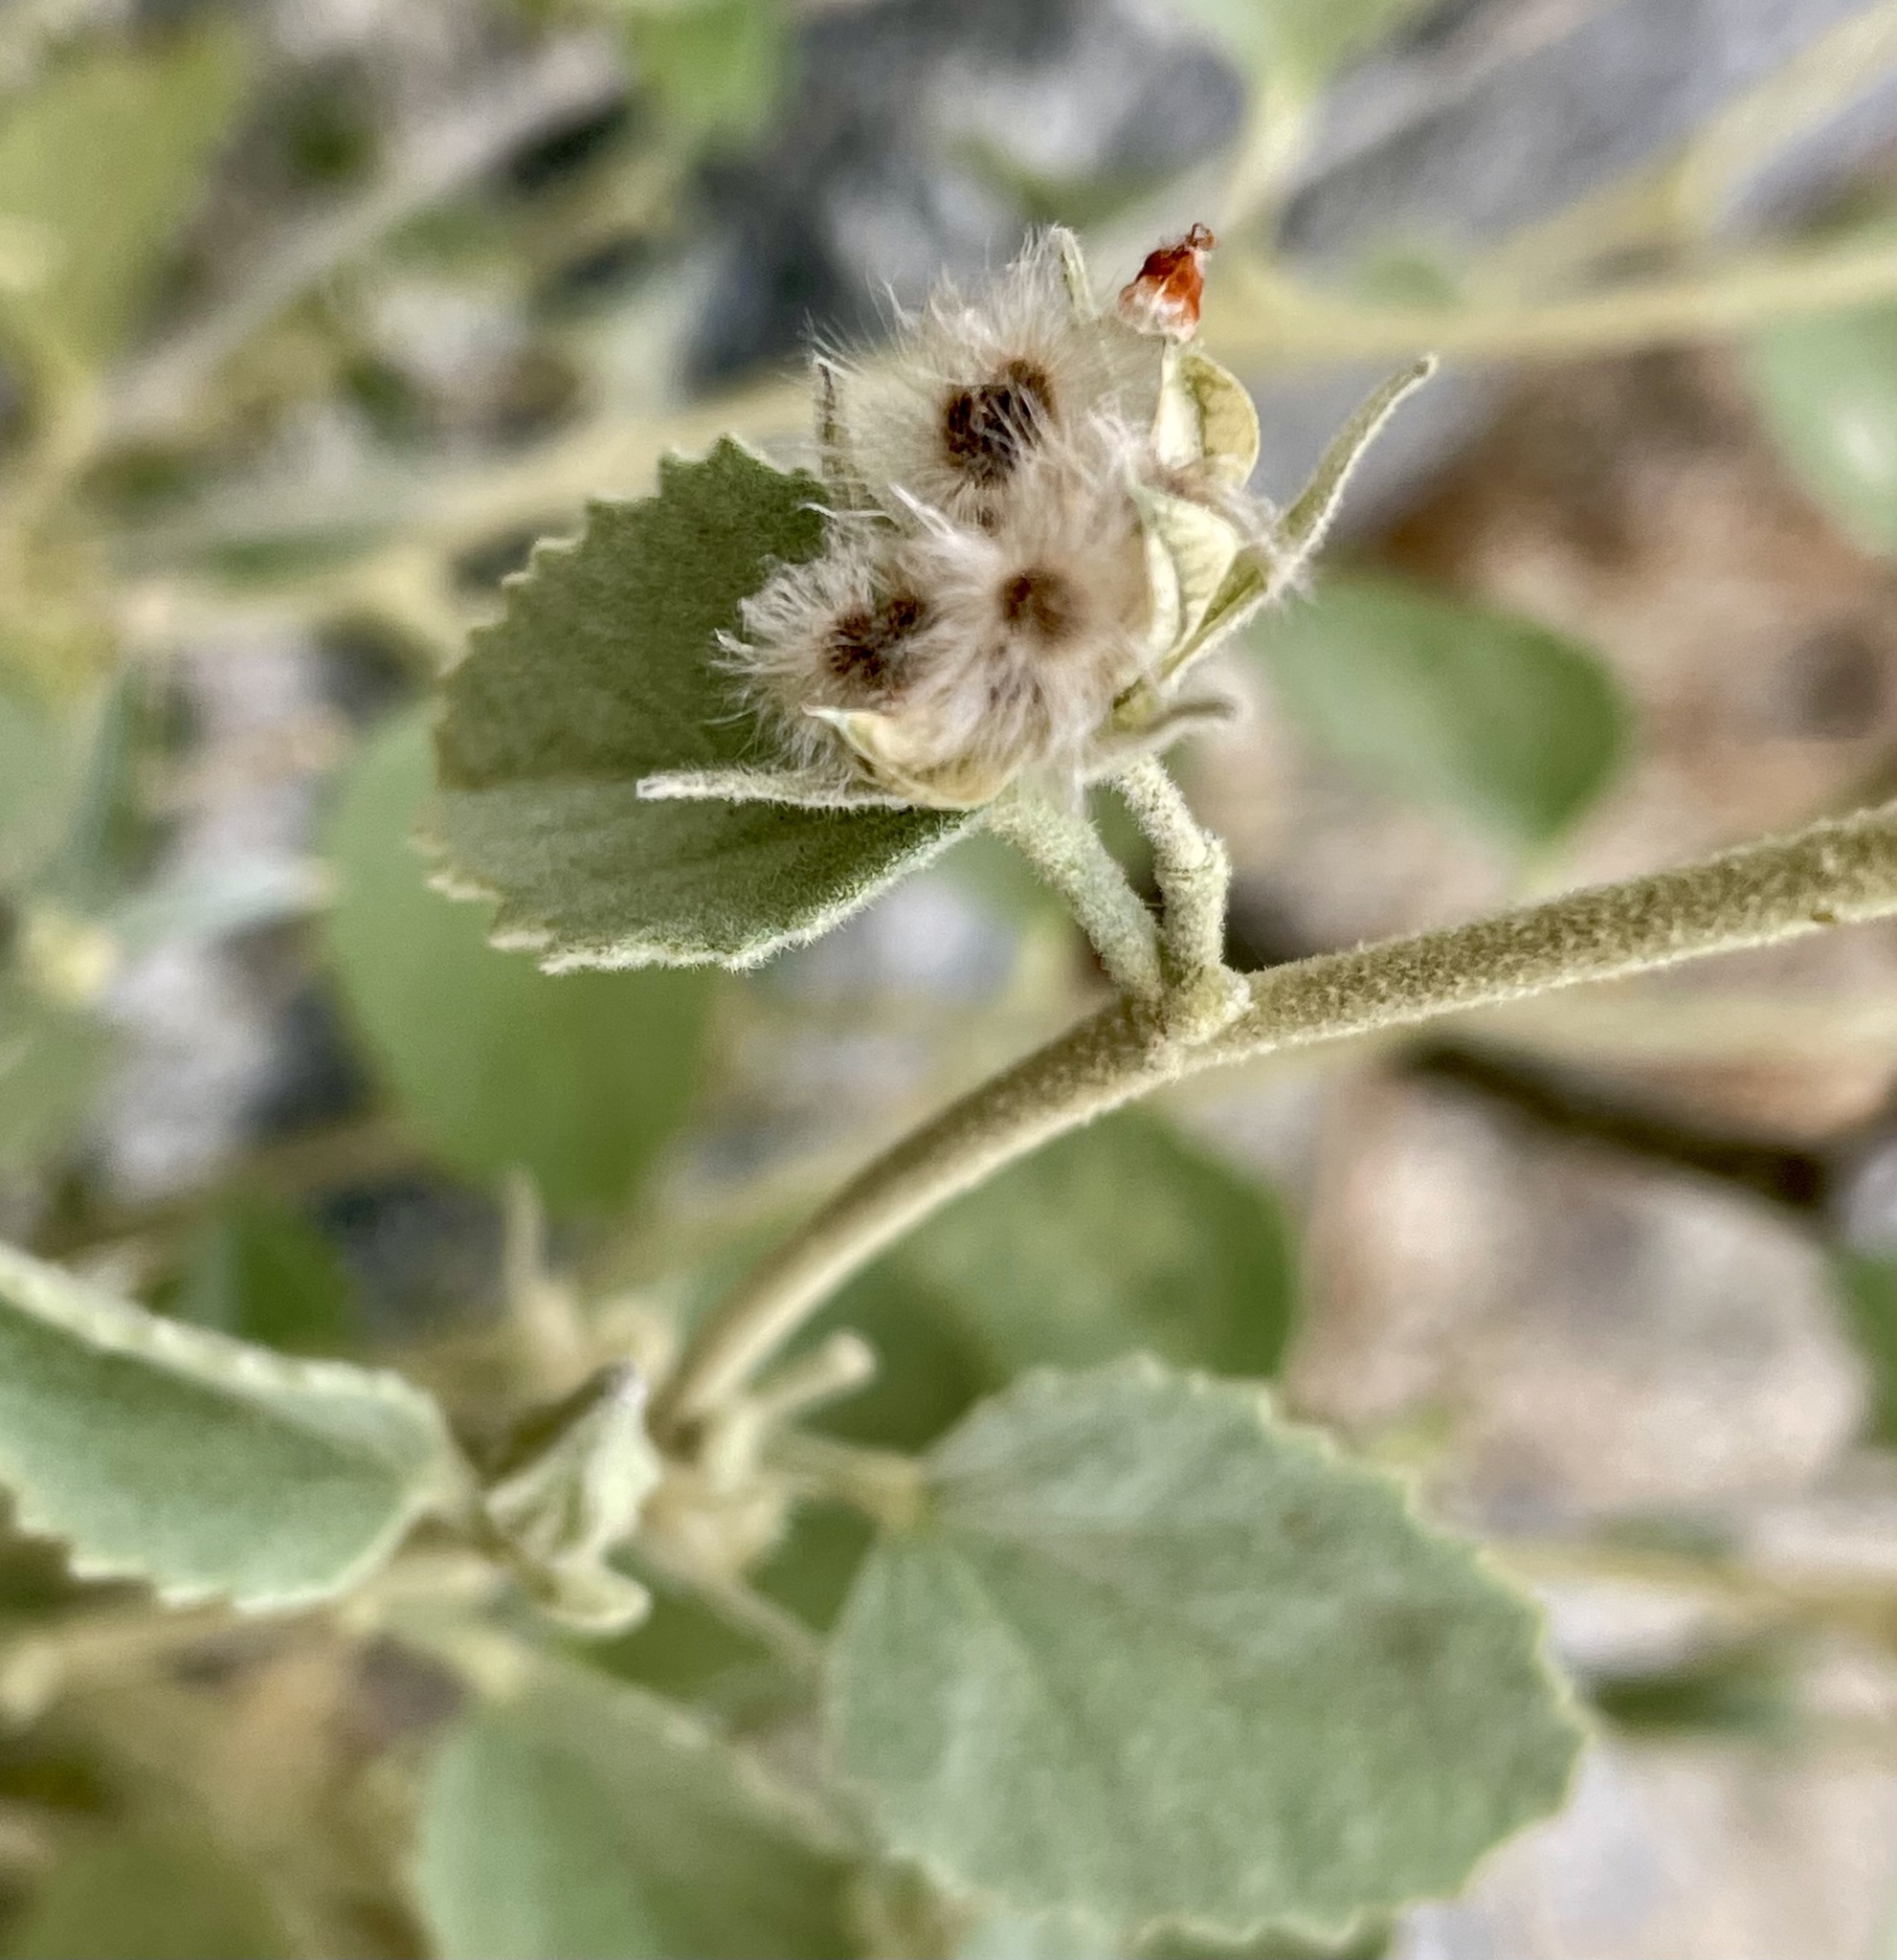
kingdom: Plantae
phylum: Tracheophyta
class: Magnoliopsida
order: Malvales
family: Malvaceae
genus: Hibiscus
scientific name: Hibiscus denudatus
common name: Paleface
